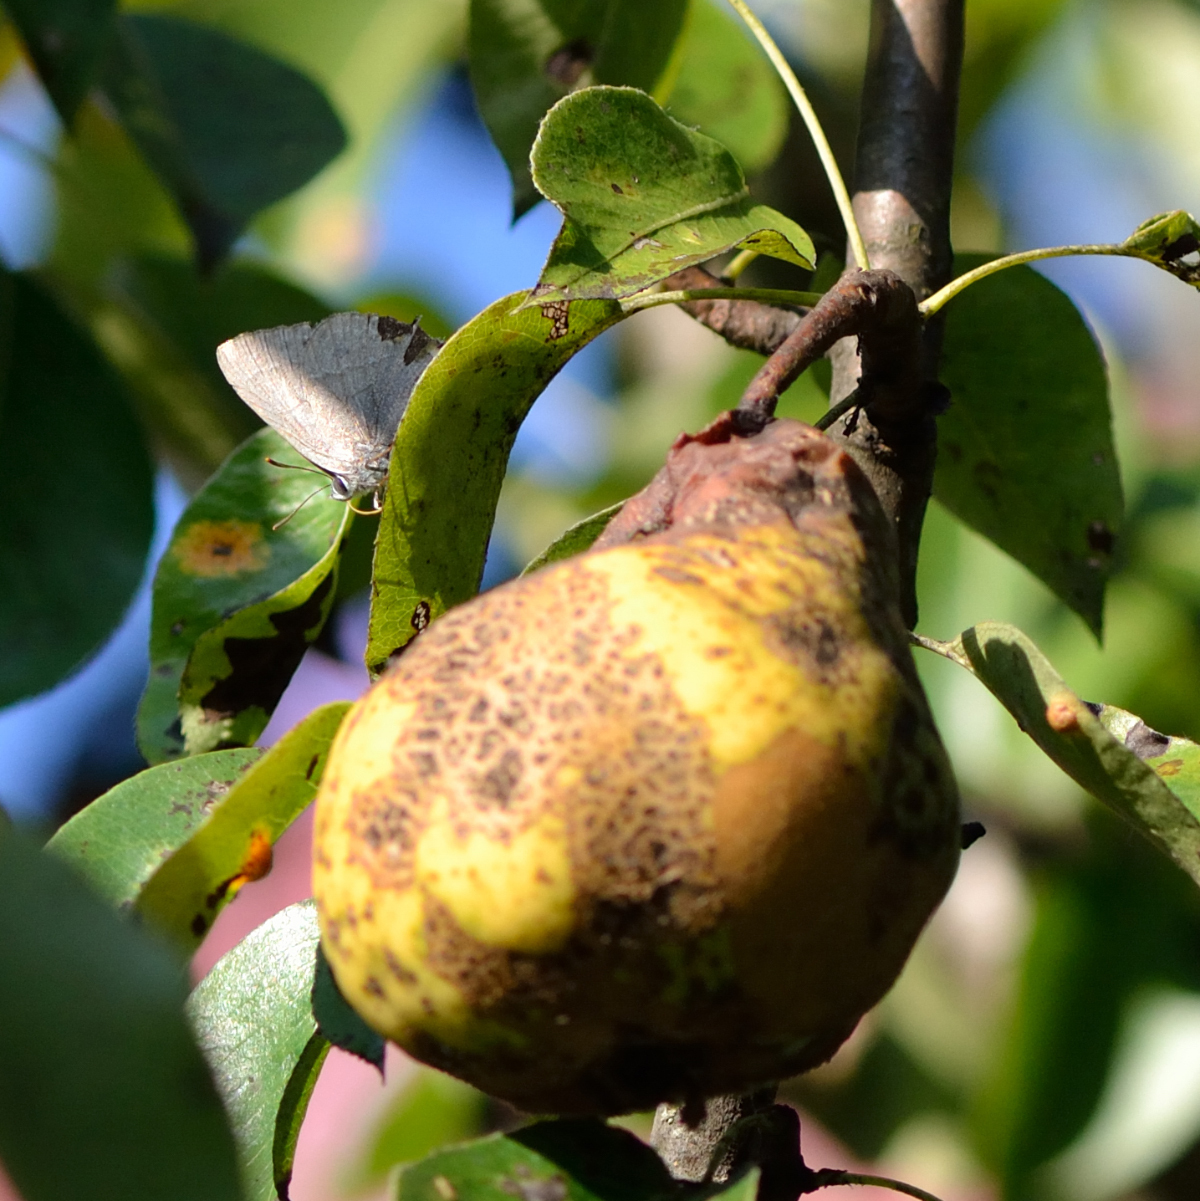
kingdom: Animalia
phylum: Arthropoda
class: Insecta
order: Lepidoptera
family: Lycaenidae
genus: Quercusia
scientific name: Quercusia quercus
